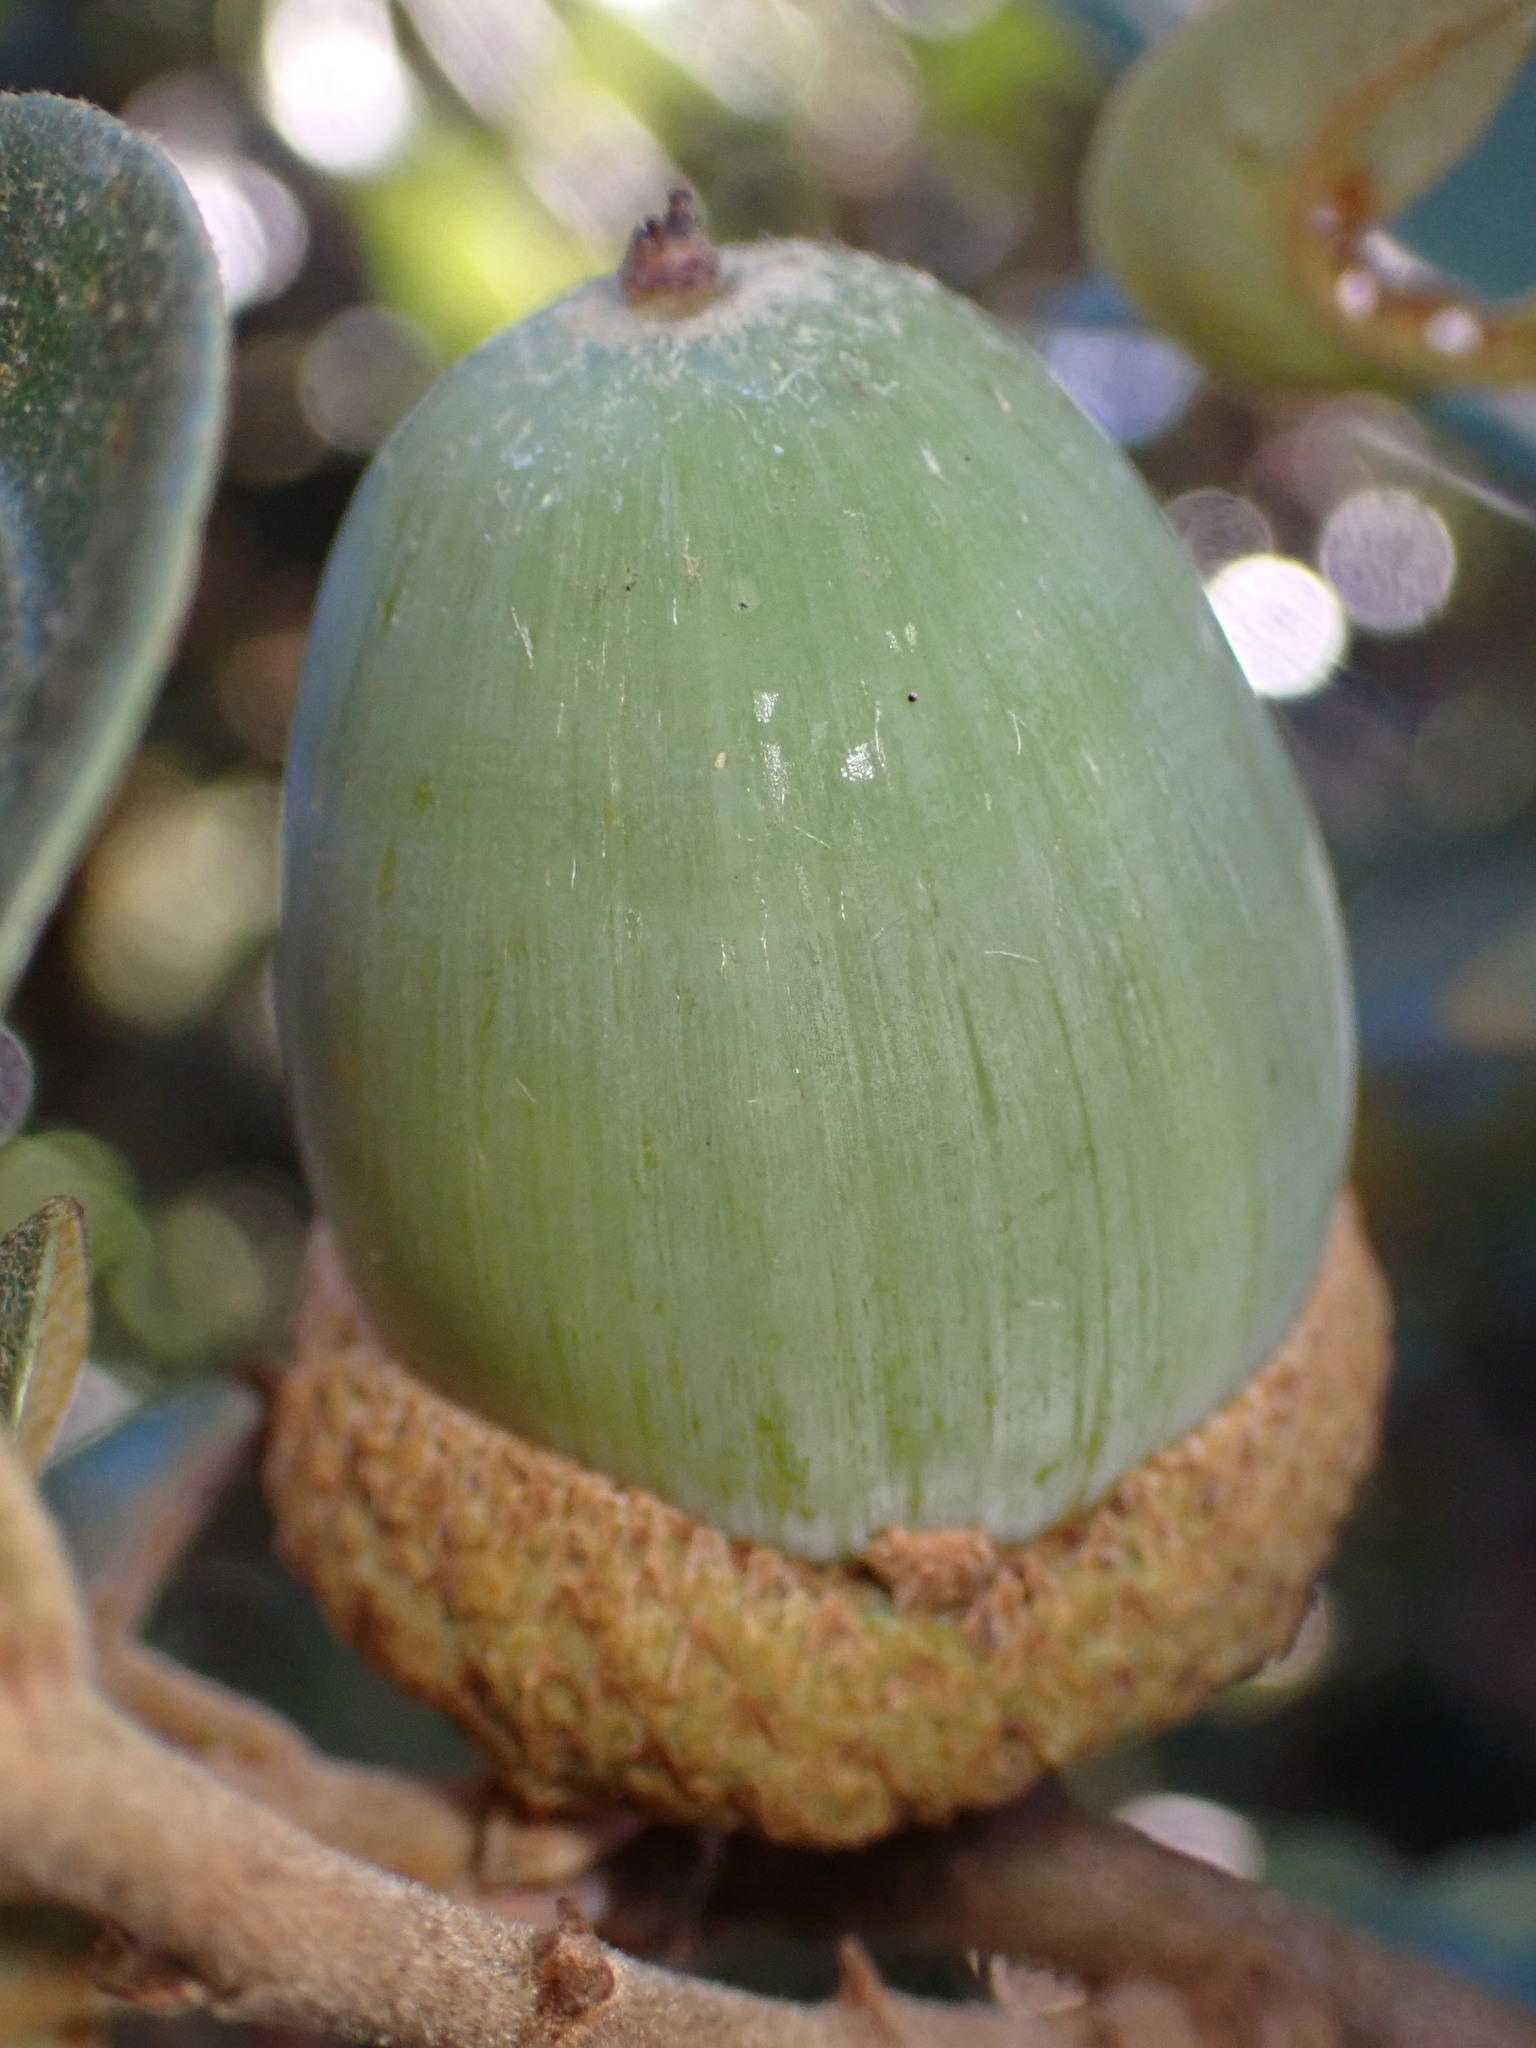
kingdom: Plantae
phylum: Tracheophyta
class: Magnoliopsida
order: Fagales
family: Fagaceae
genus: Quercus
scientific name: Quercus chrysolepis
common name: Canyon live oak
